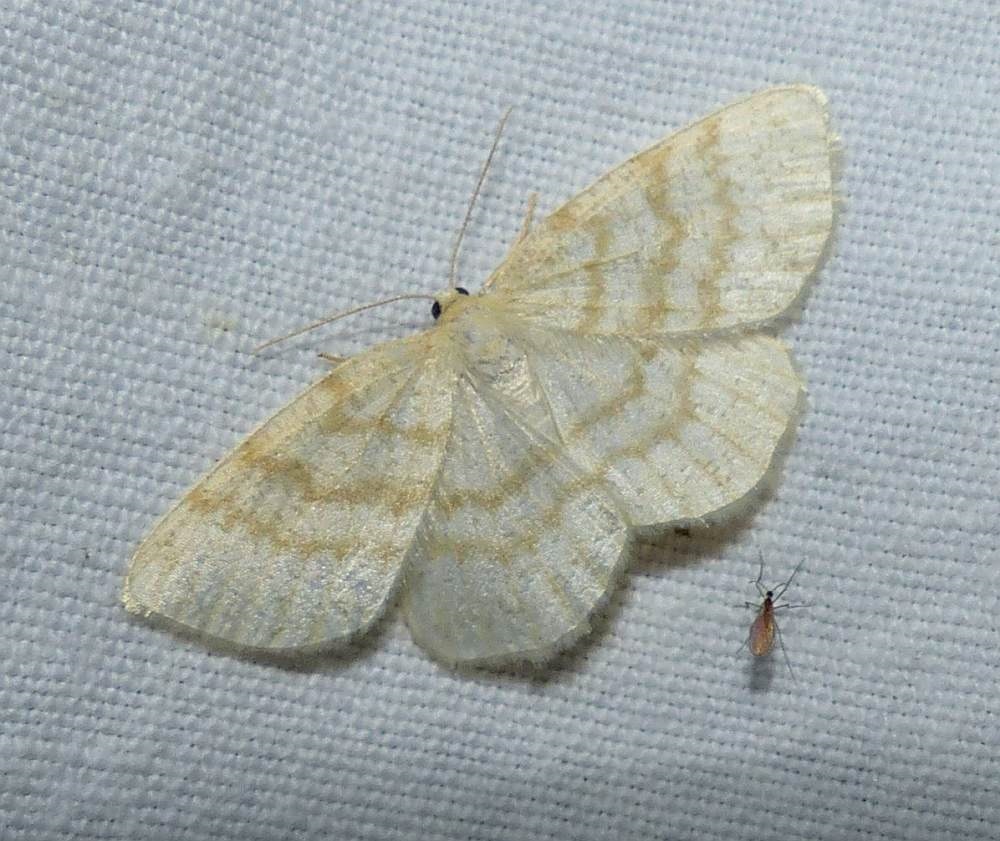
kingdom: Animalia
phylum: Arthropoda
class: Insecta
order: Lepidoptera
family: Geometridae
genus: Cabera
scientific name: Cabera erythemaria
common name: Yellow-dusted cream moth
